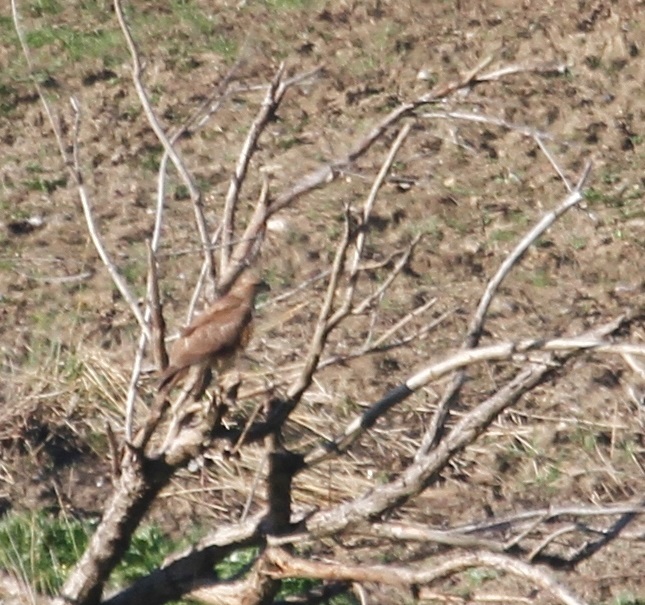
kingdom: Animalia
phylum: Chordata
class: Aves
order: Accipitriformes
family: Accipitridae
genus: Buteo
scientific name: Buteo rufinus
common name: Long-legged buzzard
